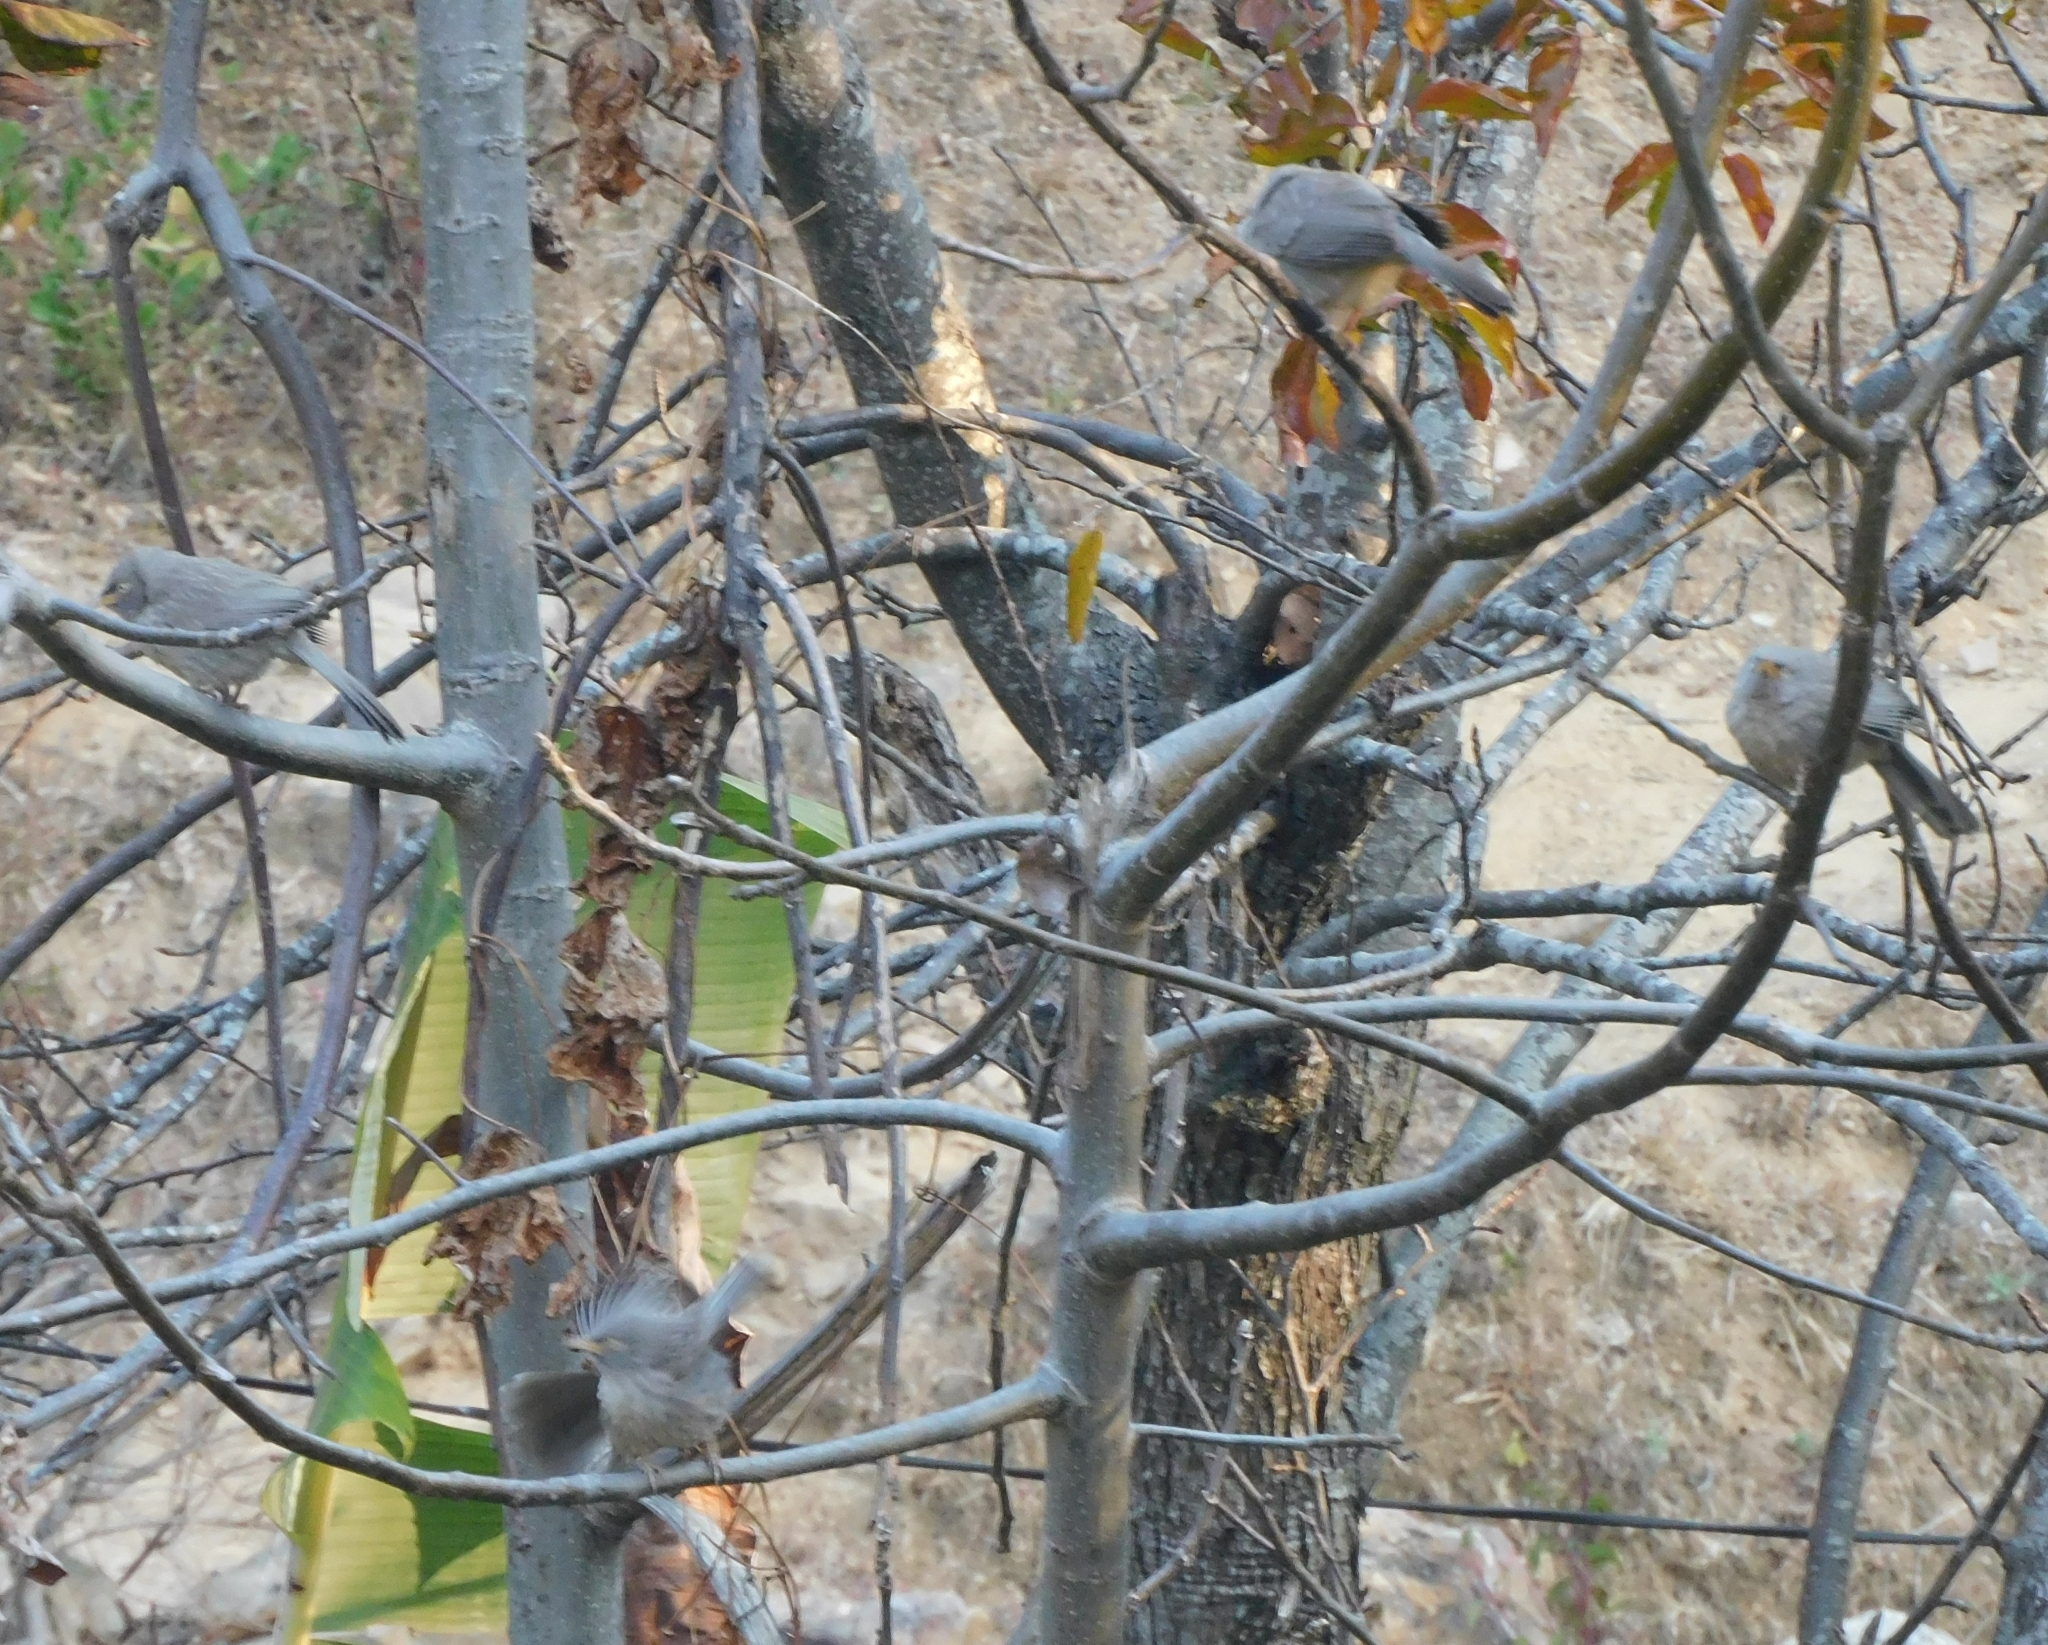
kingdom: Animalia
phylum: Chordata
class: Aves
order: Passeriformes
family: Leiothrichidae
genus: Turdoides
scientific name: Turdoides striata
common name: Jungle babbler
